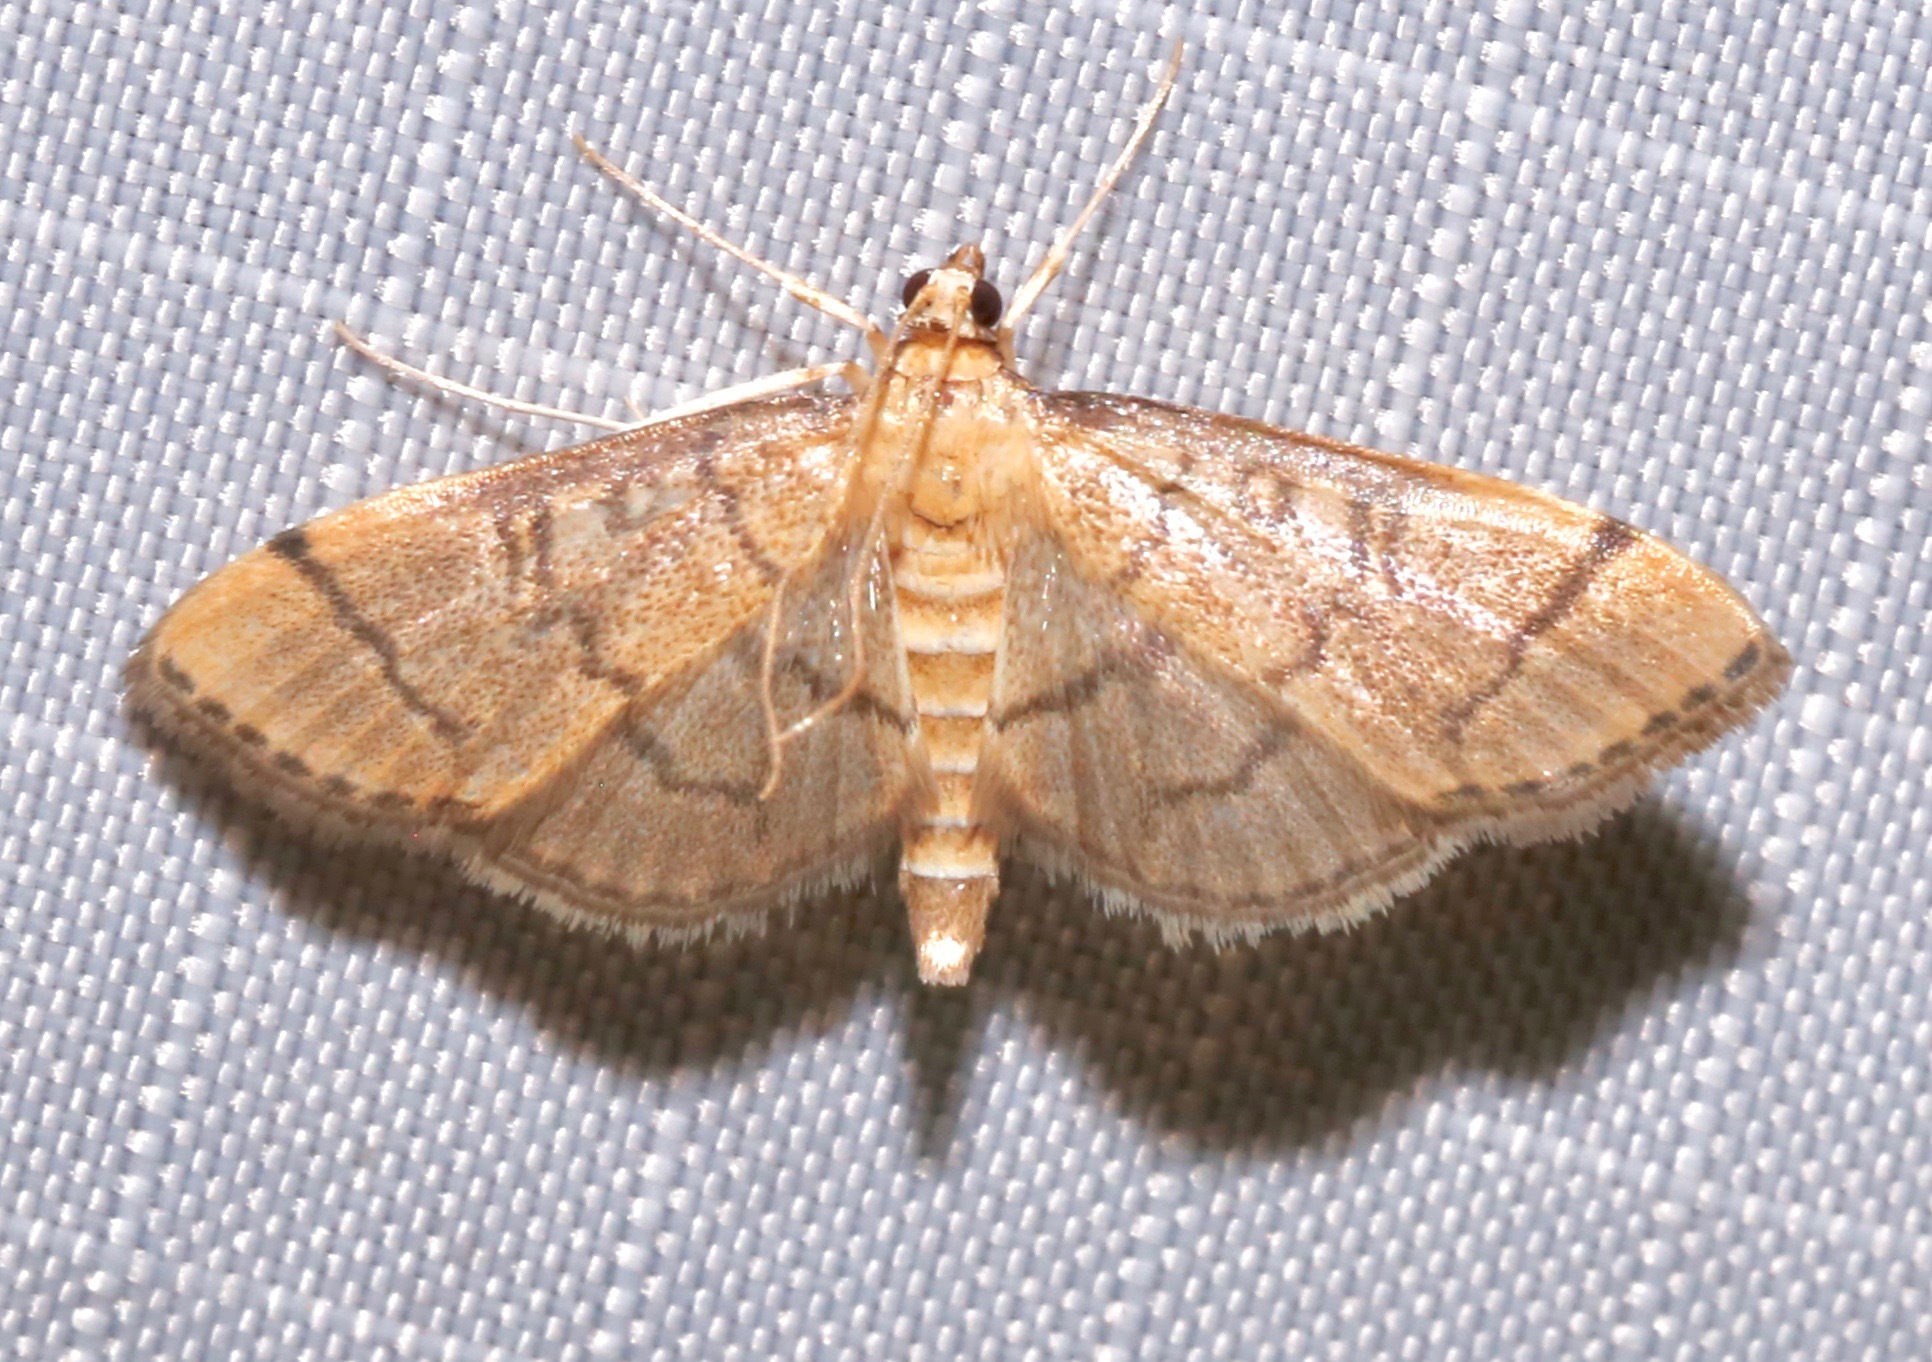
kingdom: Animalia
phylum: Arthropoda
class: Insecta
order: Lepidoptera
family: Crambidae
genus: Lamprosema
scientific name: Lamprosema Blepharomastix ranalis
